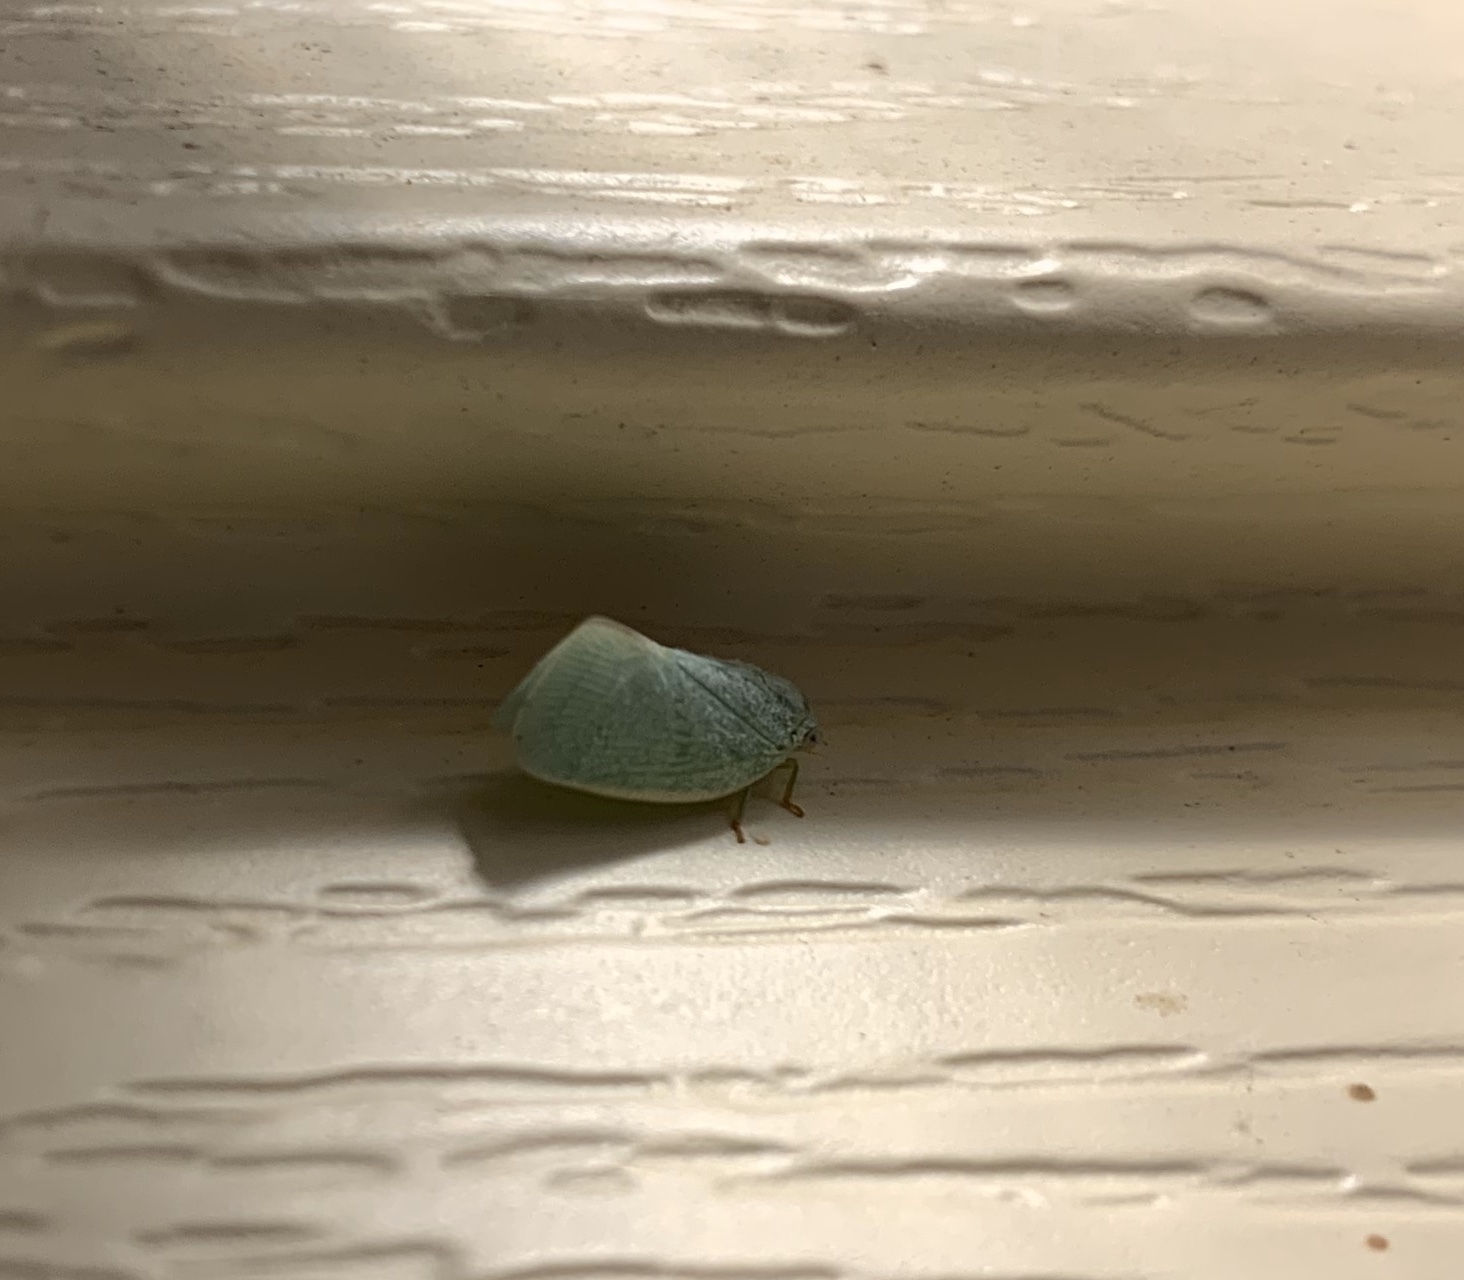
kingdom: Animalia
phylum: Arthropoda
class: Insecta
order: Hemiptera
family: Flatidae
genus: Flatormenis
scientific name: Flatormenis proxima
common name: Northern flatid planthopper
